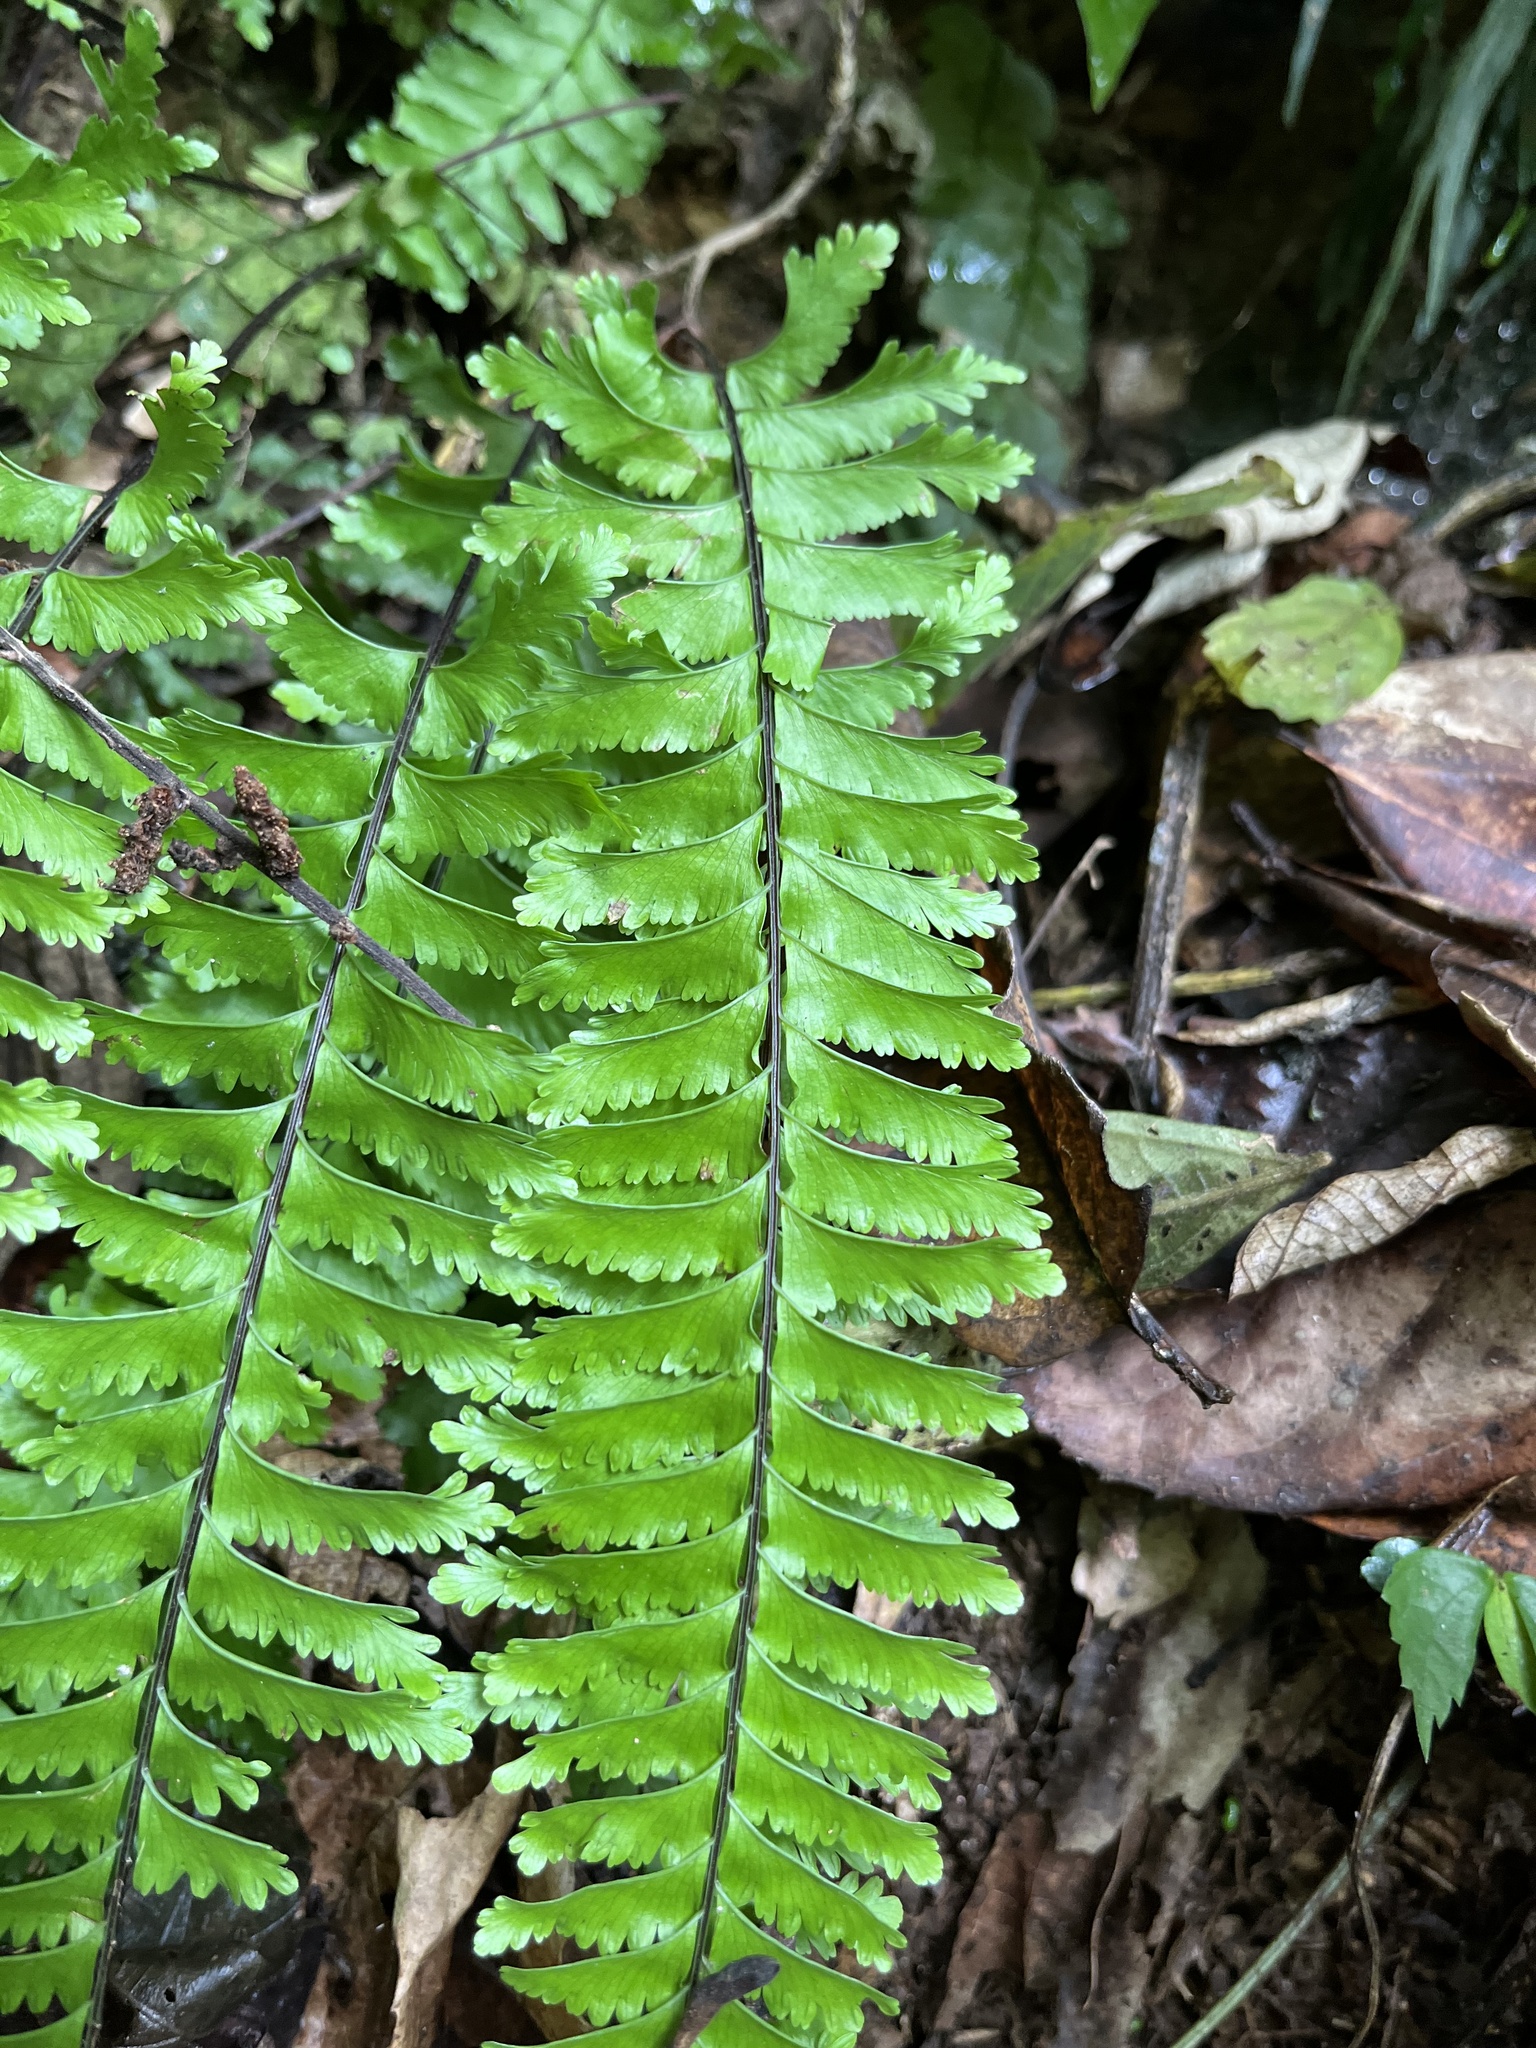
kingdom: Plantae
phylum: Tracheophyta
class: Polypodiopsida
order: Polypodiales
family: Aspleniaceae
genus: Hymenasplenium
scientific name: Hymenasplenium cheilosorum
